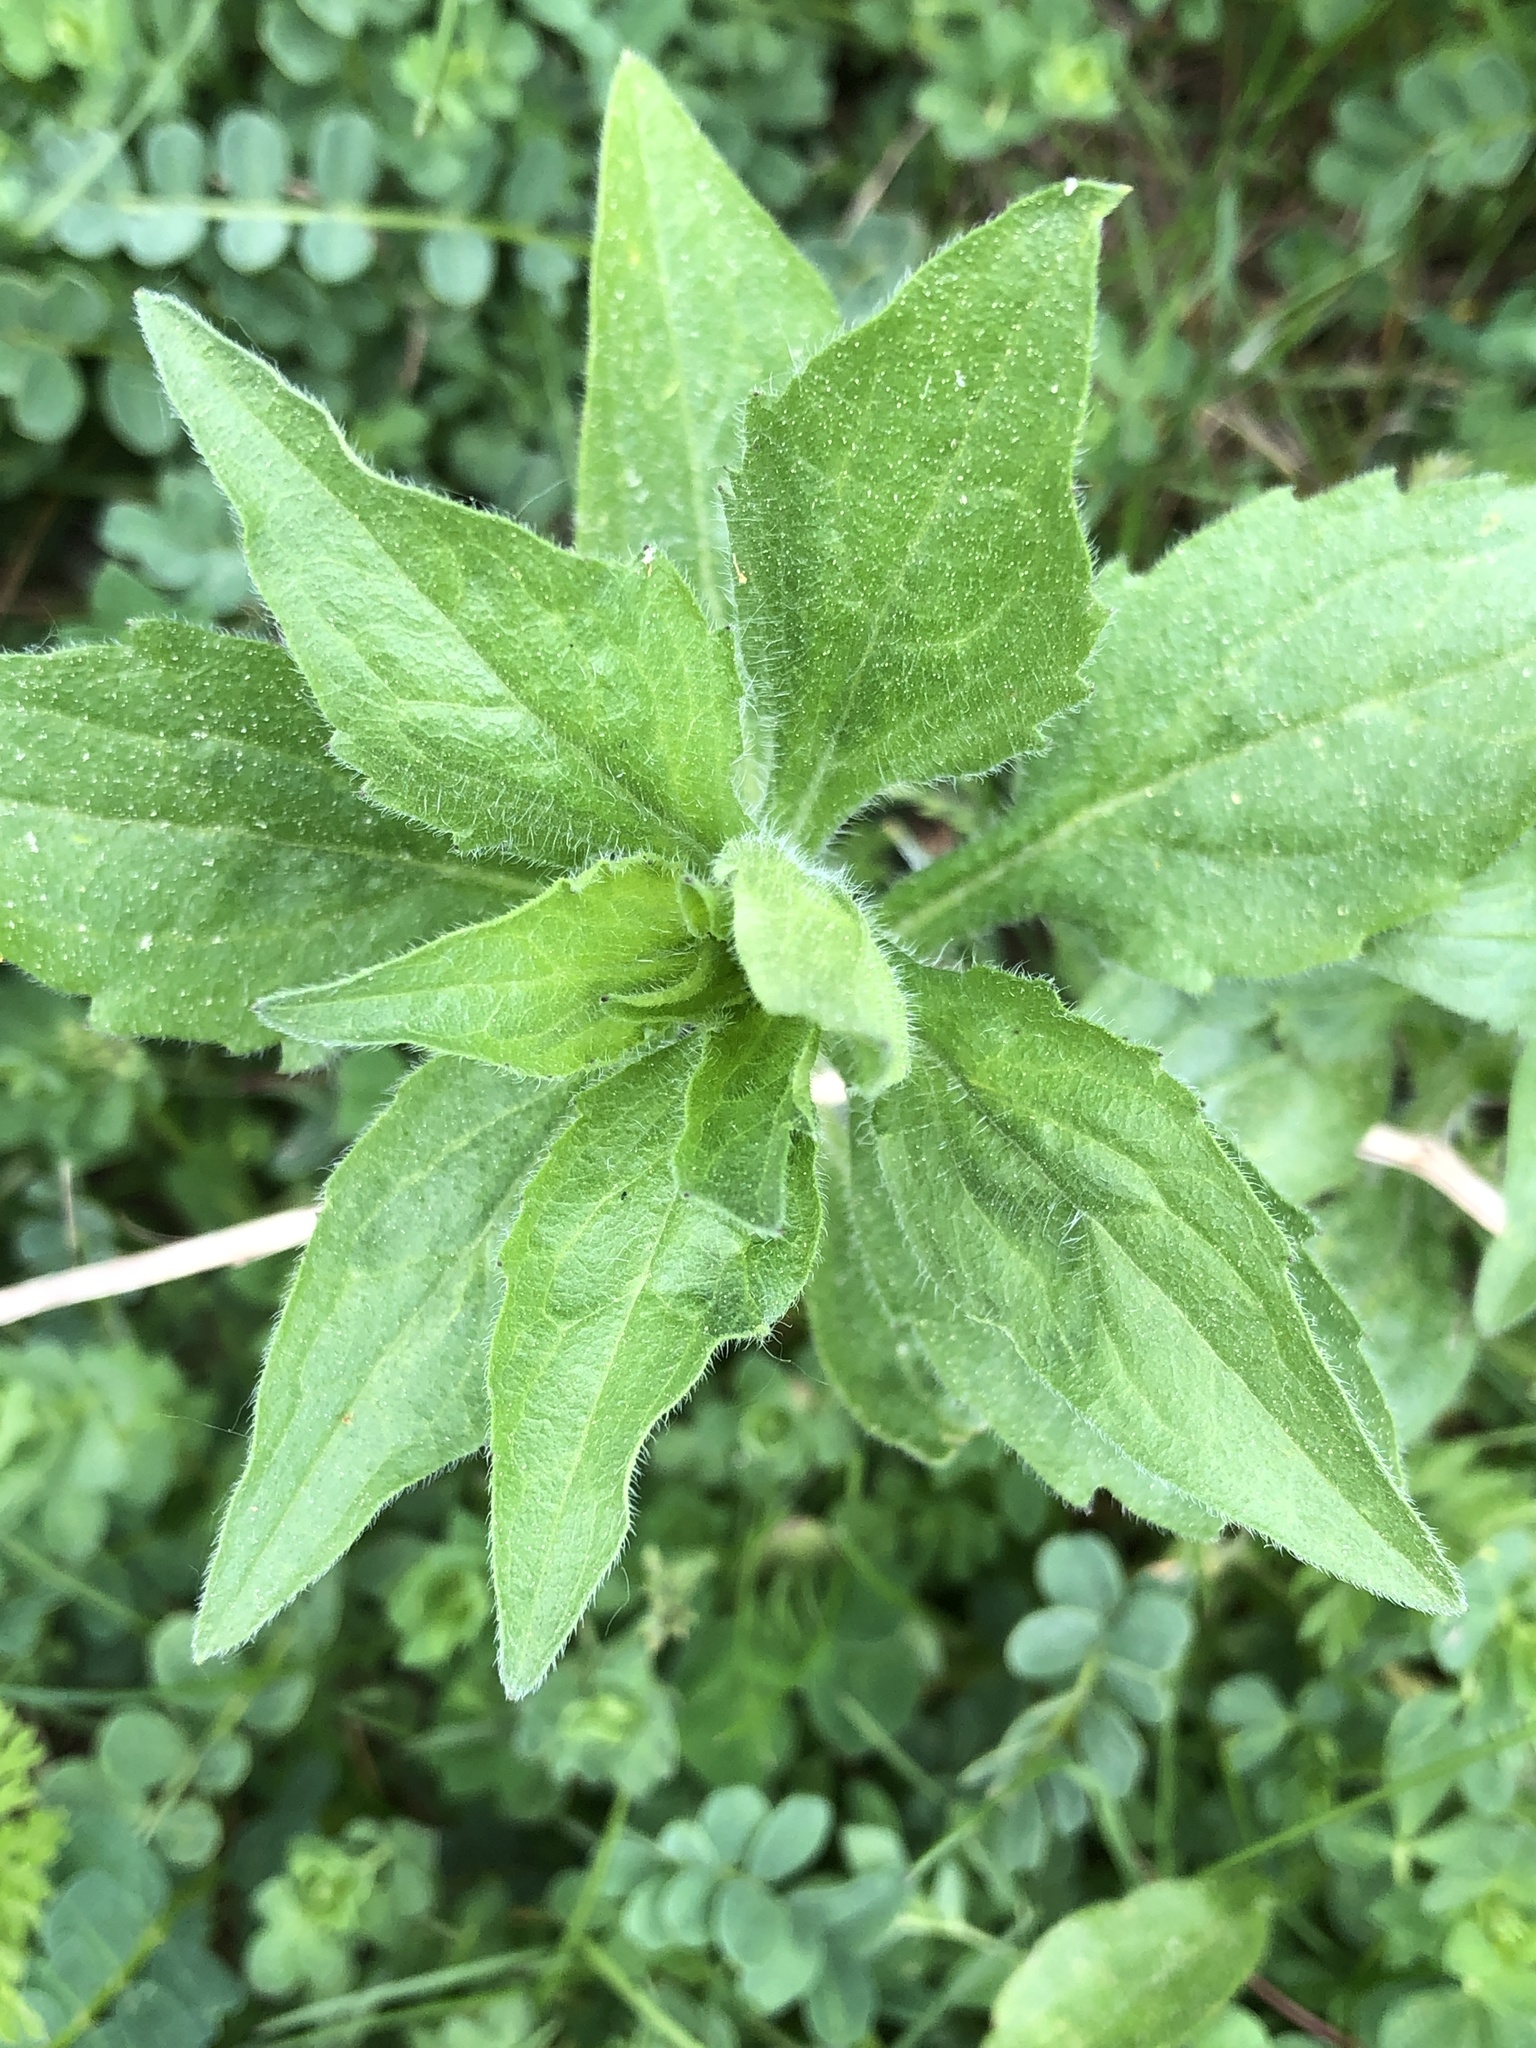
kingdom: Plantae
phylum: Tracheophyta
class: Magnoliopsida
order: Asterales
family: Asteraceae
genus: Erigeron
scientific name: Erigeron annuus
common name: Tall fleabane
